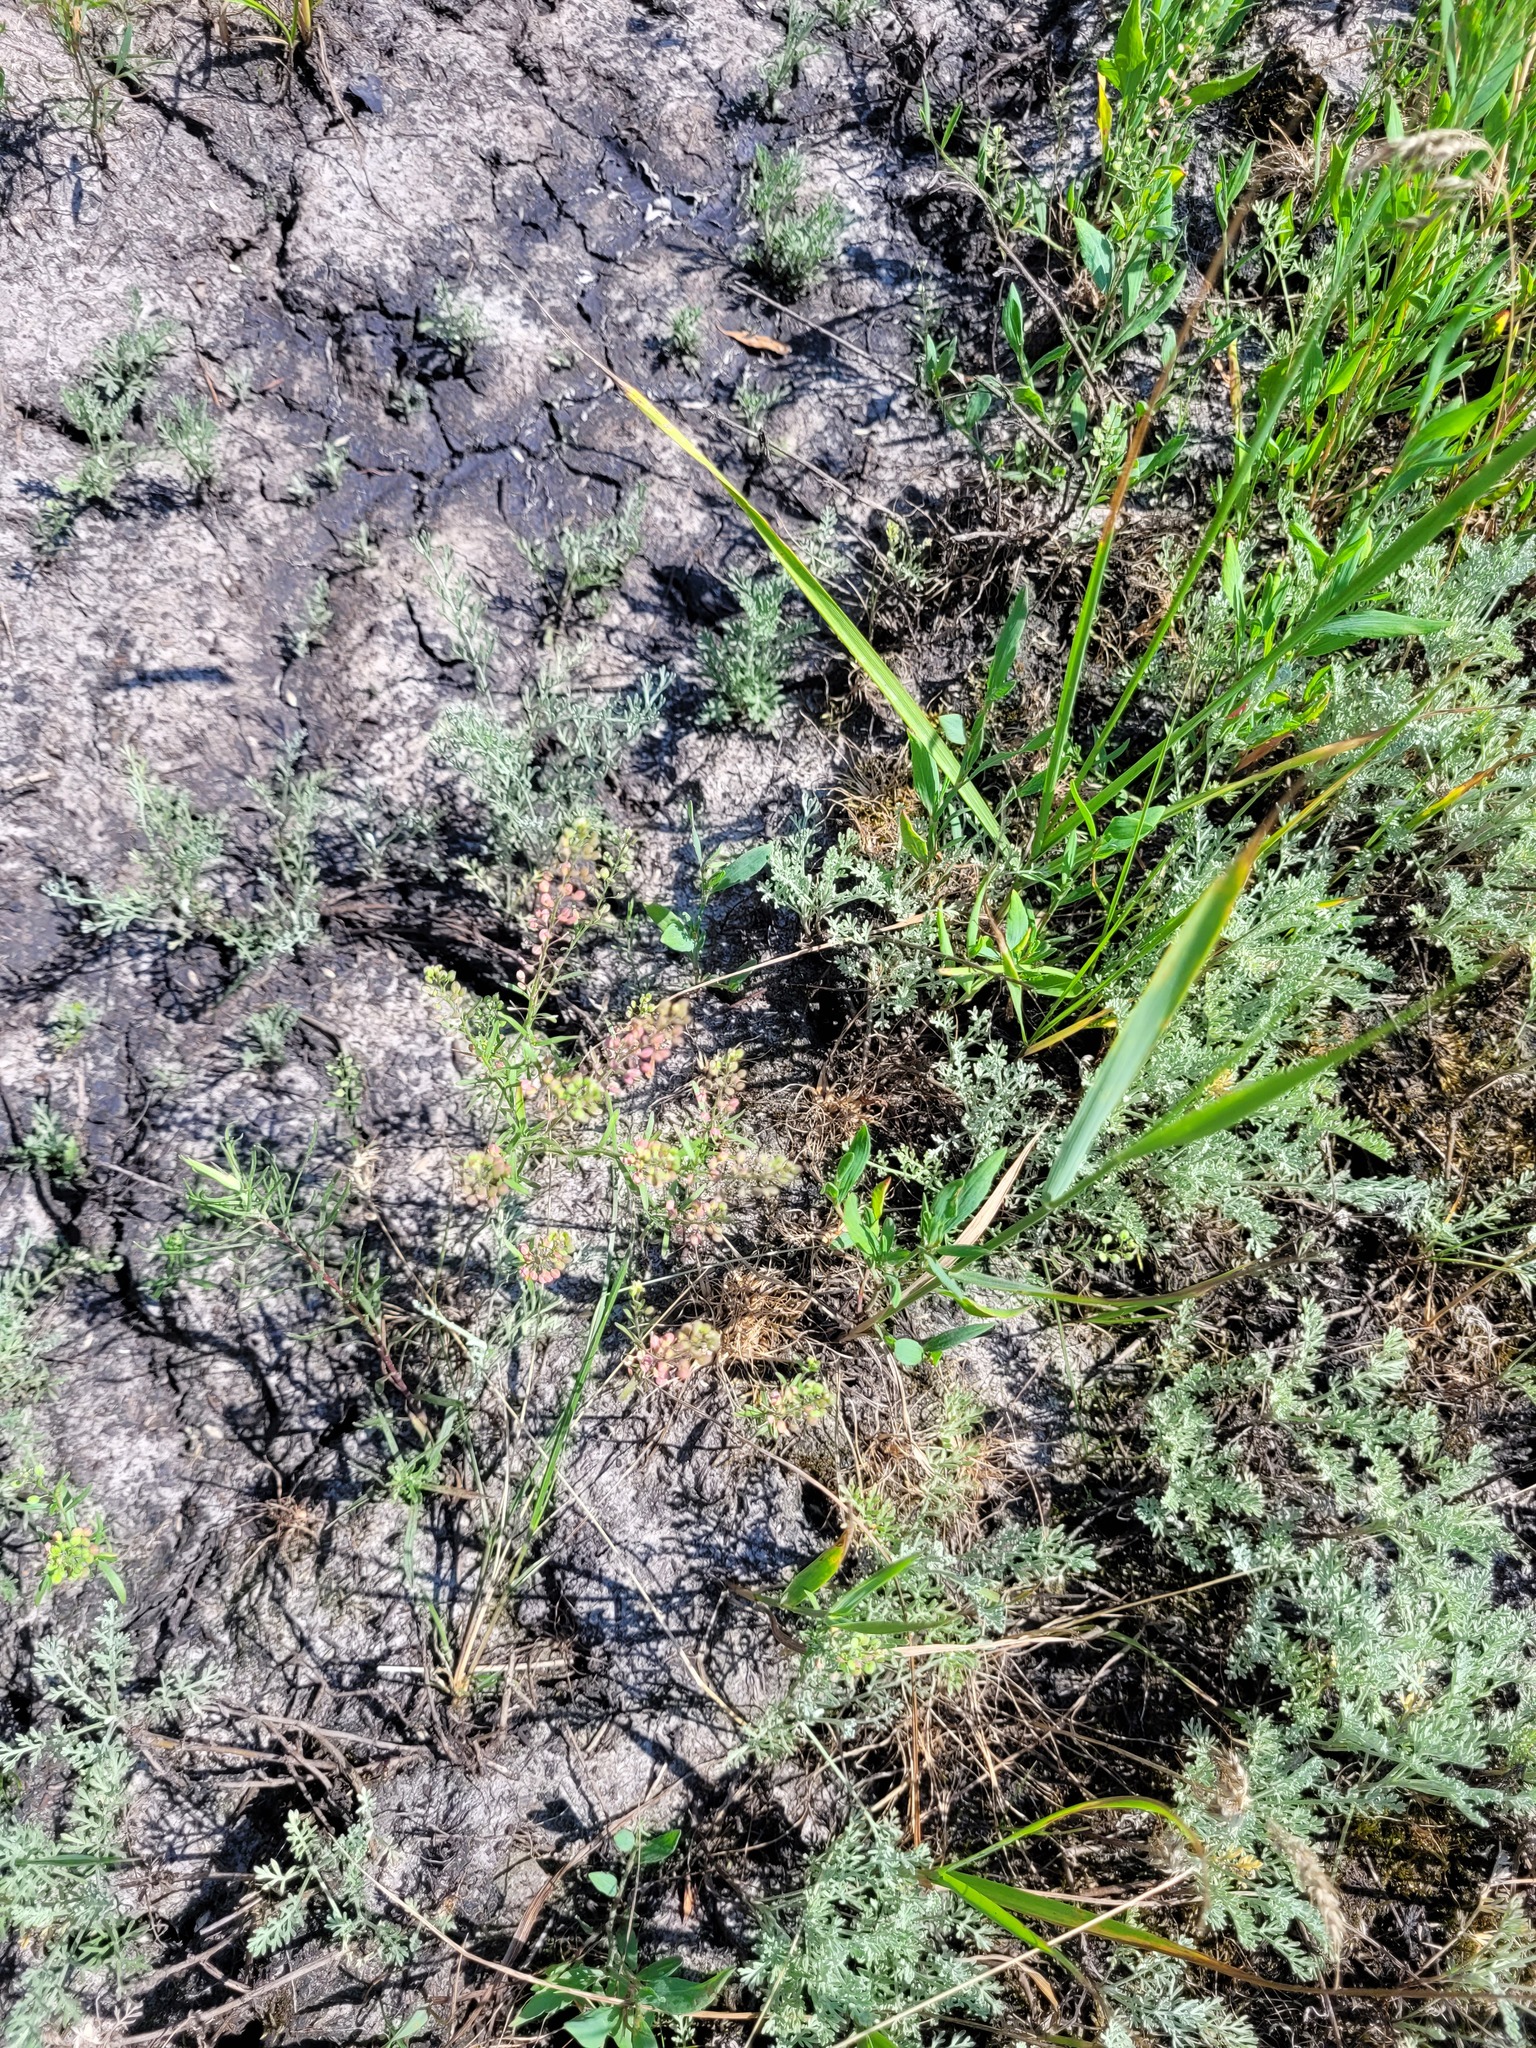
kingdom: Plantae
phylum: Tracheophyta
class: Magnoliopsida
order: Brassicales
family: Brassicaceae
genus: Lepidium
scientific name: Lepidium ruderale
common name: Narrow-leaved pepperwort
